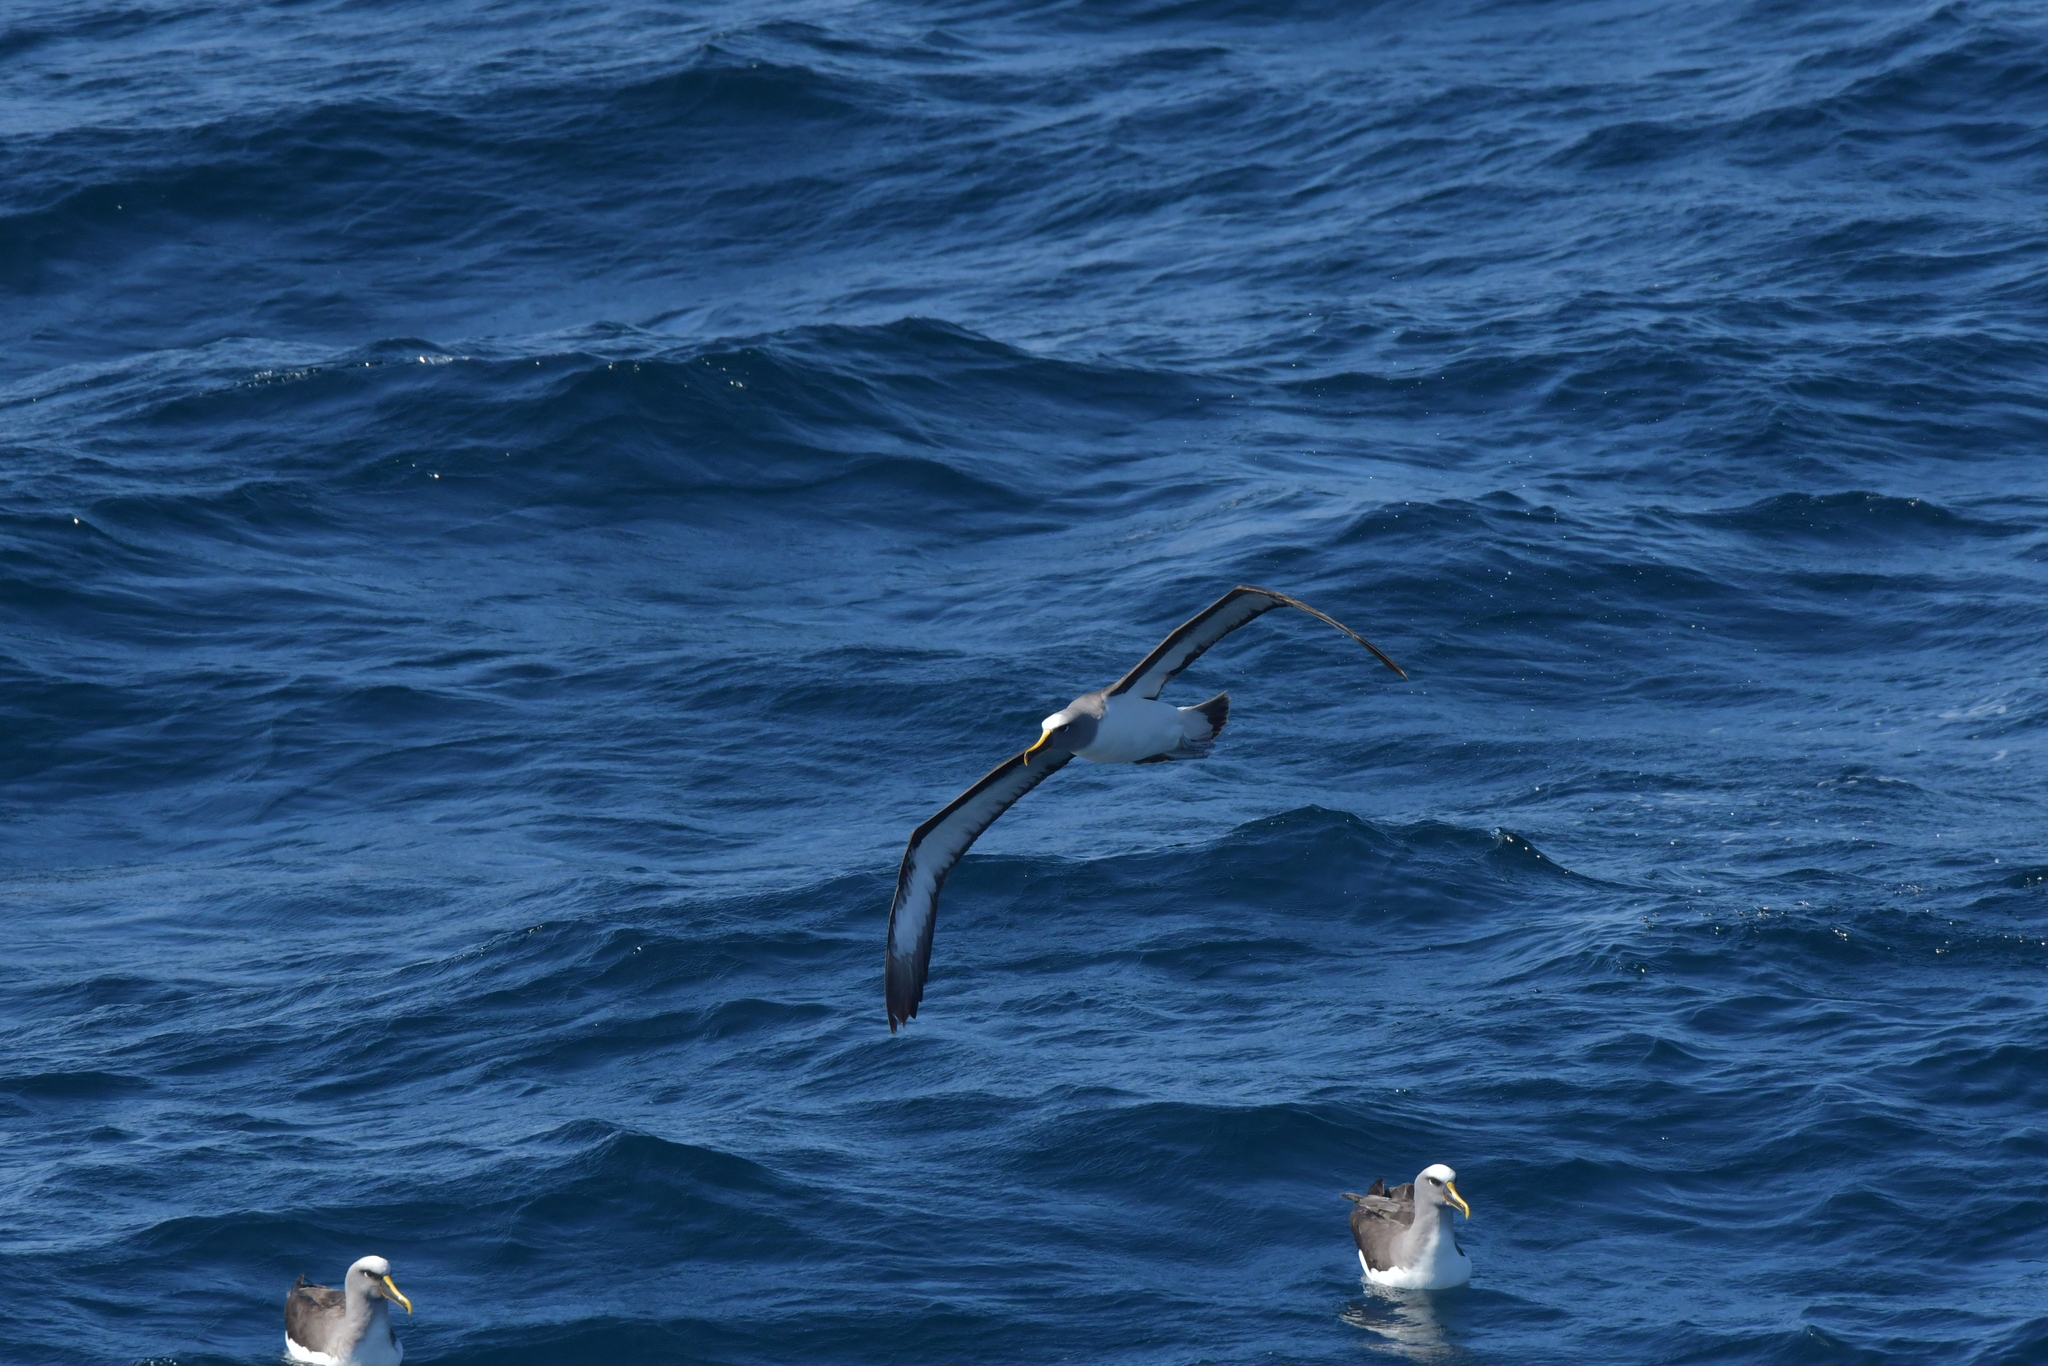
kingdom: Animalia
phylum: Chordata
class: Aves
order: Procellariiformes
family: Diomedeidae
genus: Thalassarche
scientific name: Thalassarche bulleri
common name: Buller's albatross
